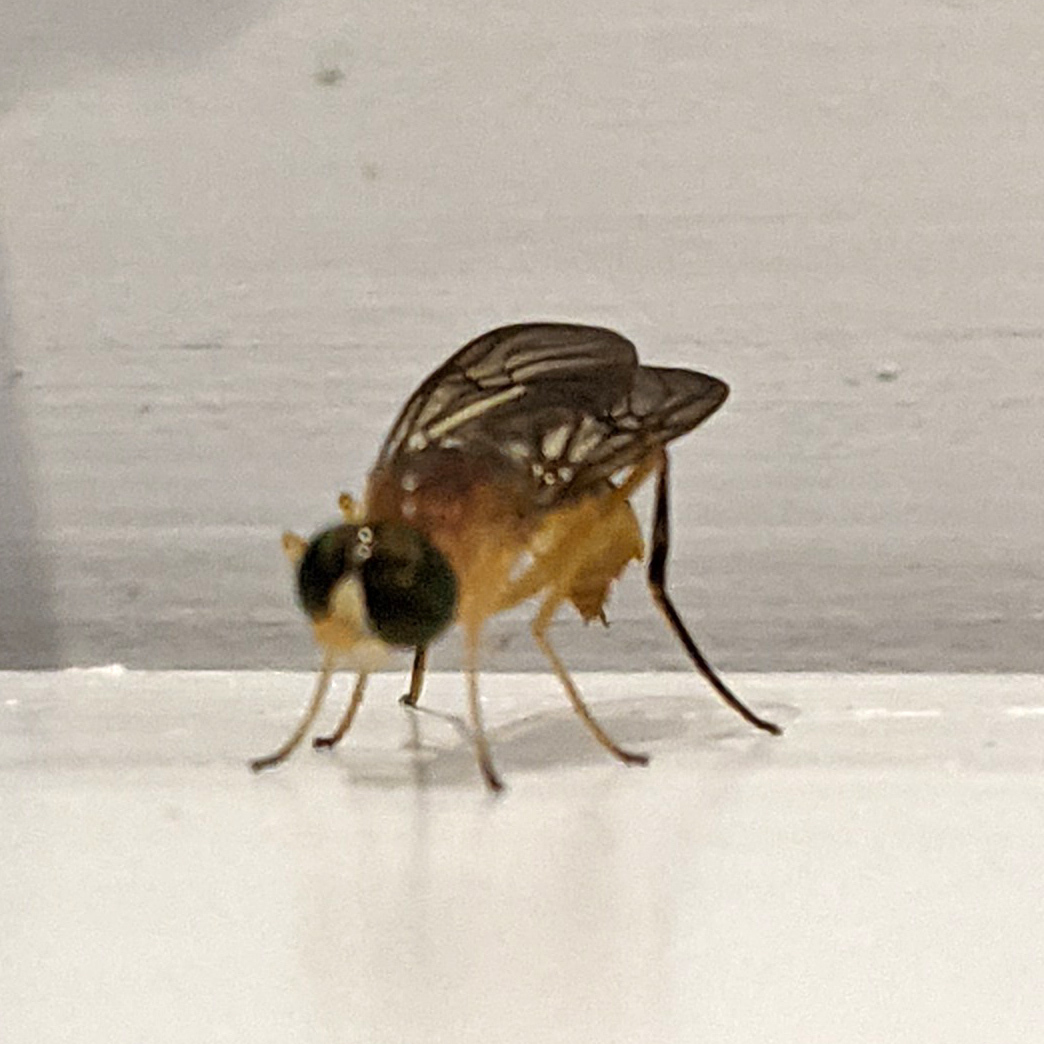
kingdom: Animalia
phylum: Arthropoda
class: Insecta
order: Diptera
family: Stratiomyidae
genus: Ptecticus
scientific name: Ptecticus trivittatus
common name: Compost fly
